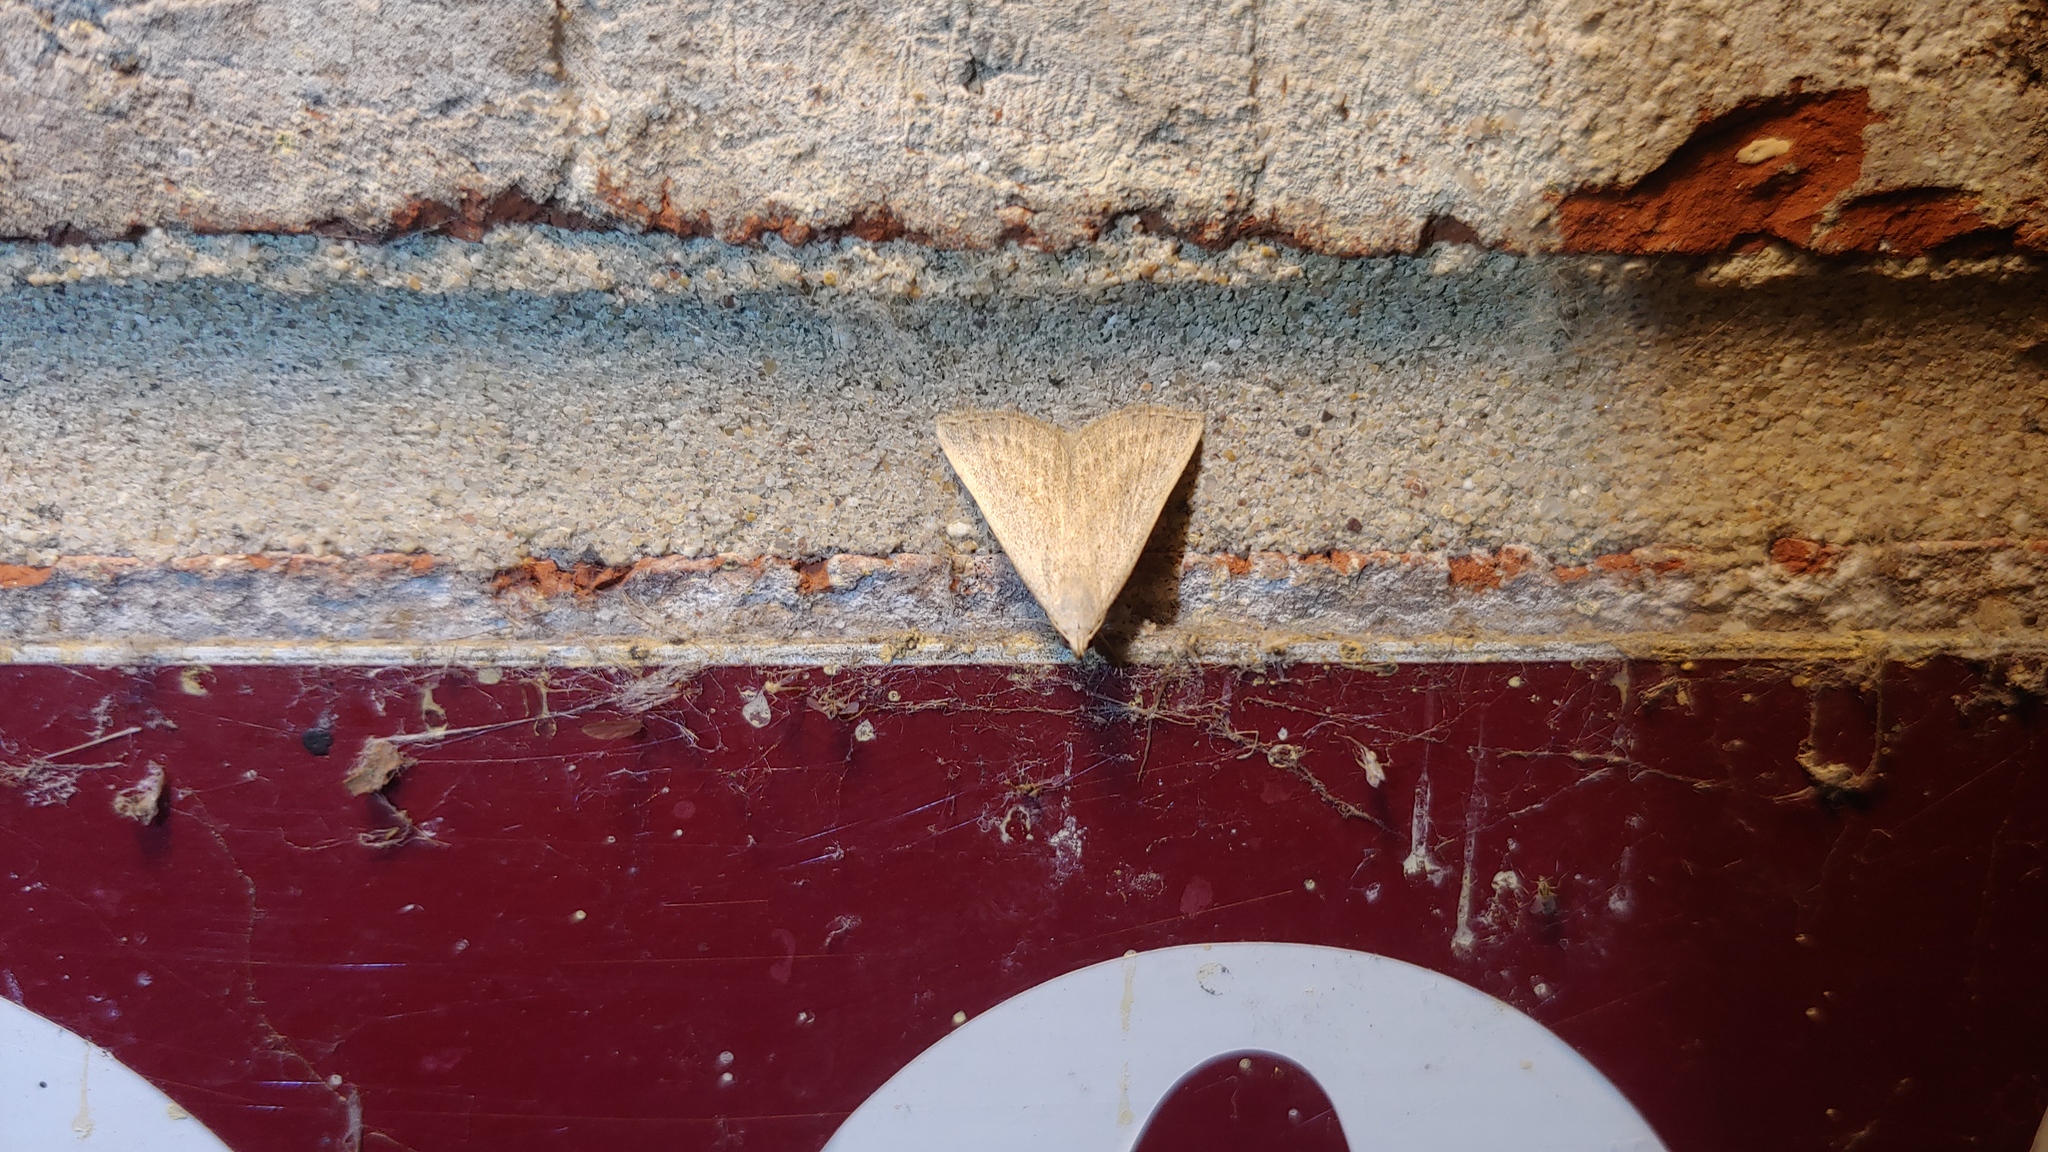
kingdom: Animalia
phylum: Arthropoda
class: Insecta
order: Lepidoptera
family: Erebidae
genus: Macrochilo
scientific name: Macrochilo louisiana
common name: Louisiana macrochilo
